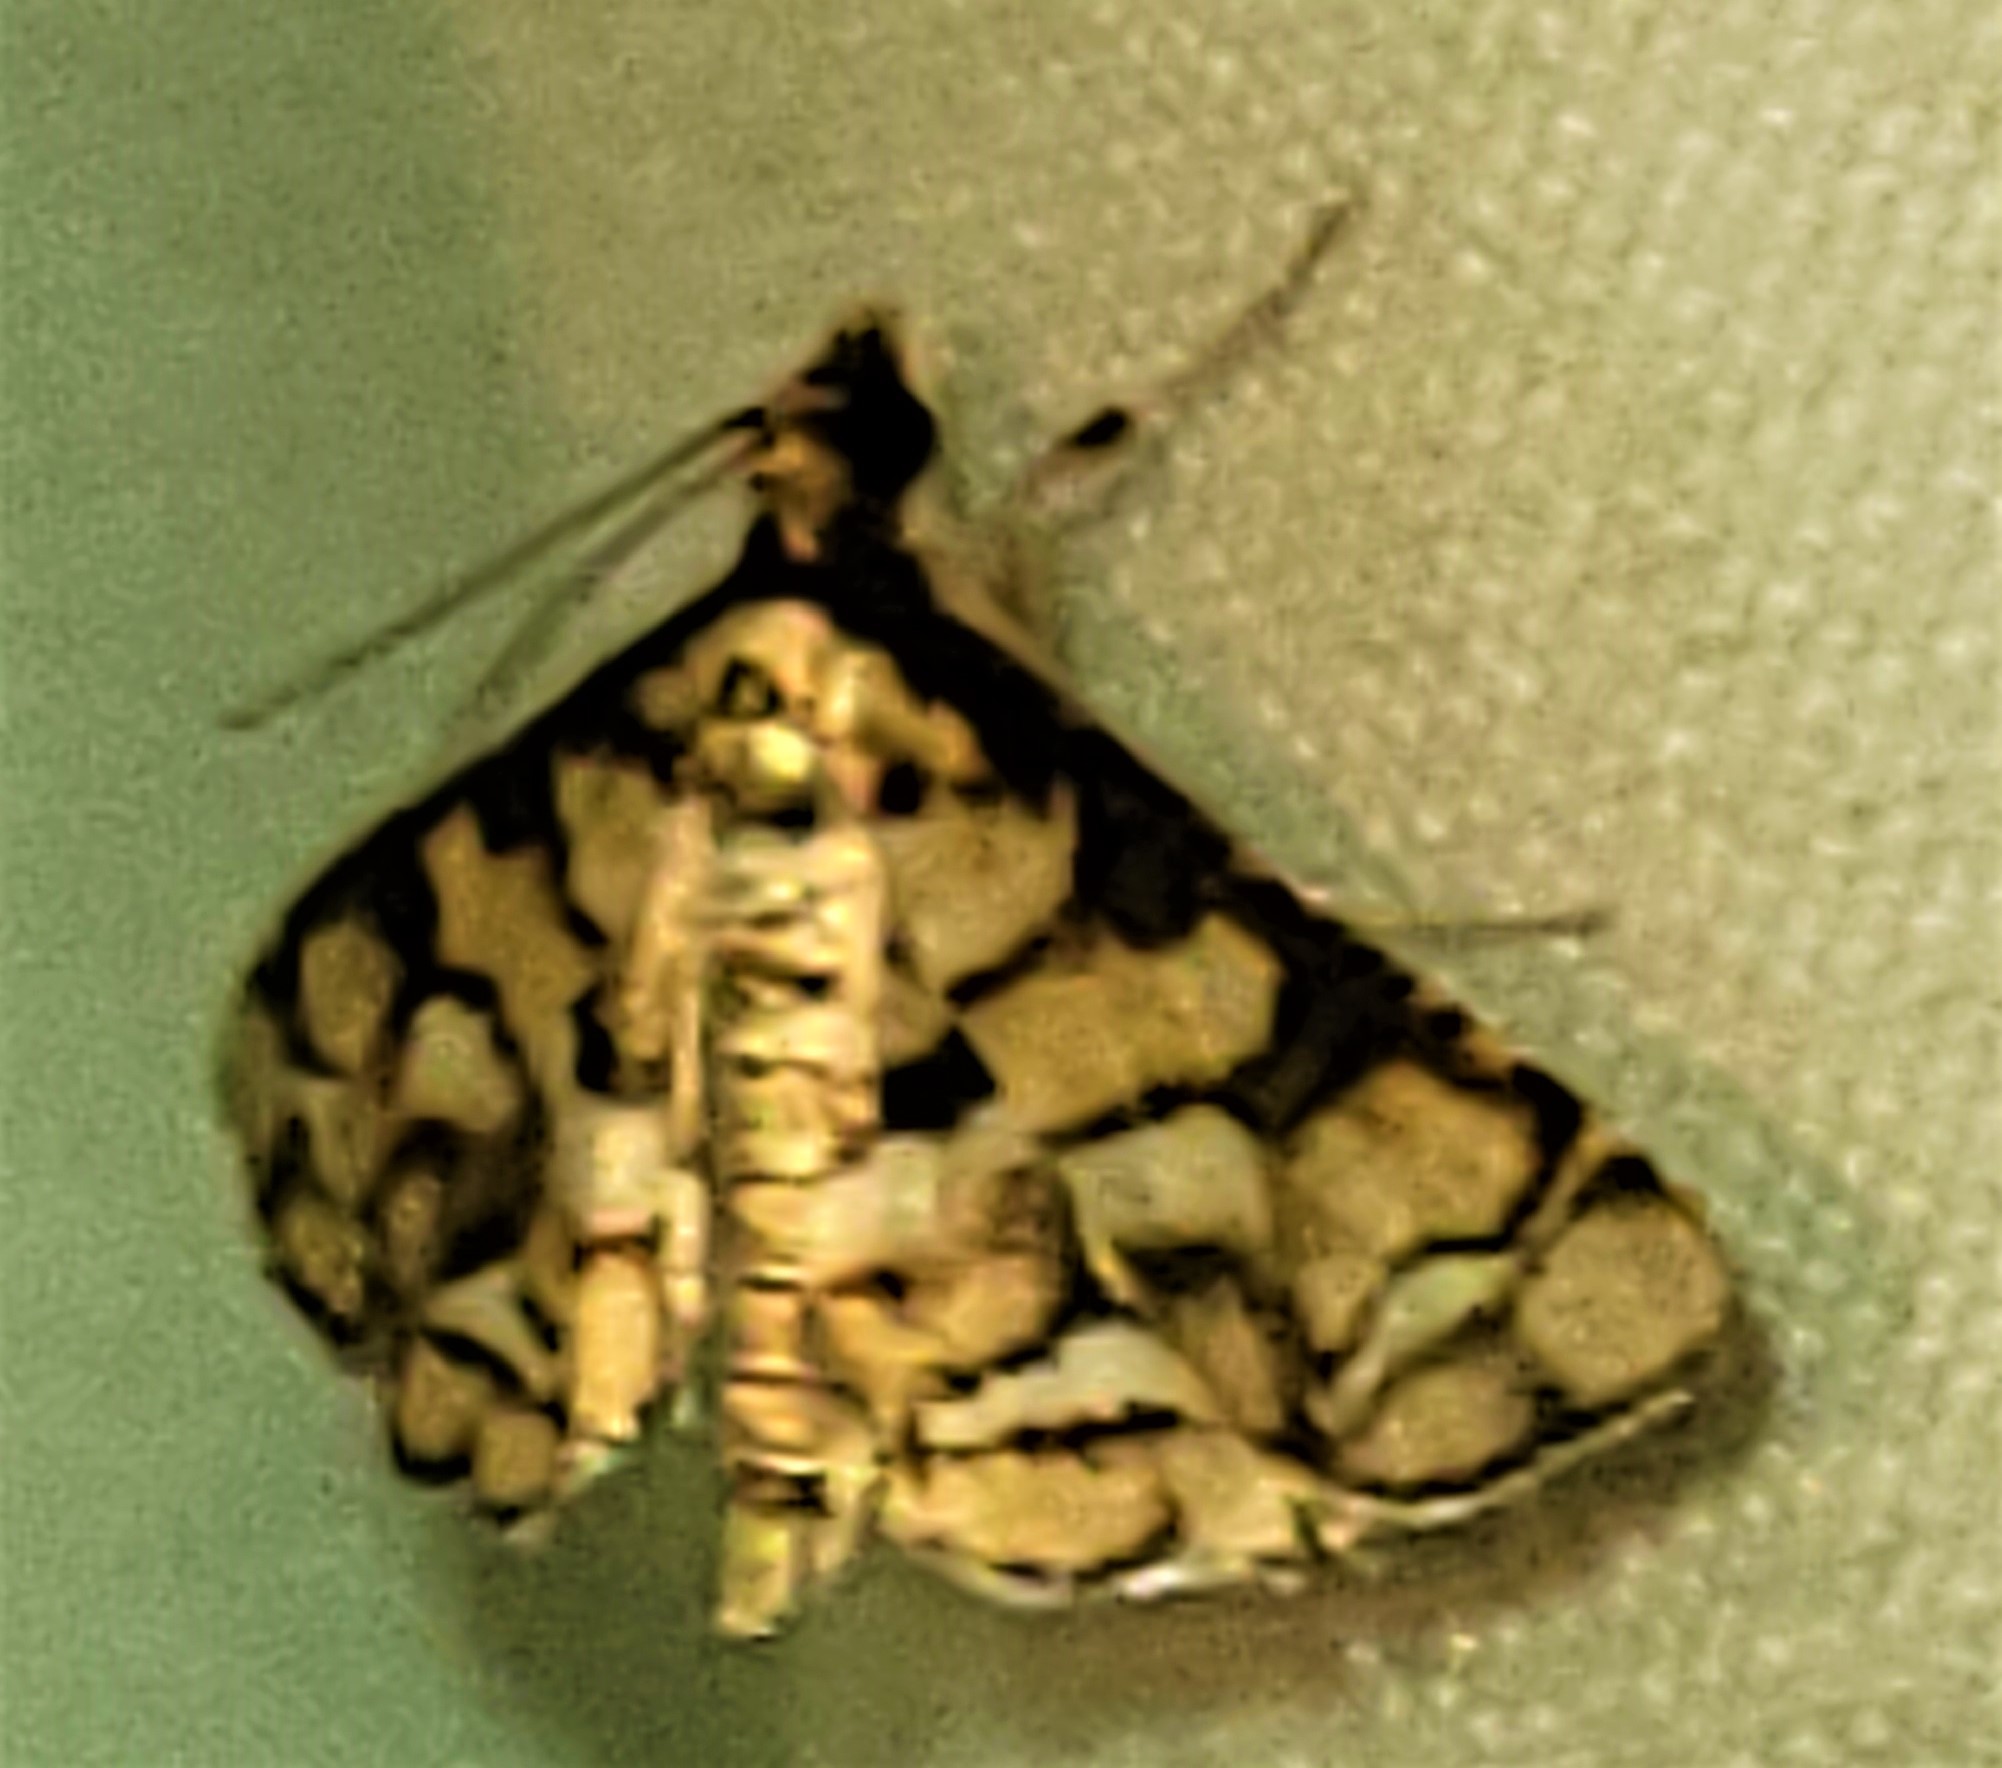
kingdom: Animalia
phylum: Arthropoda
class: Insecta
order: Lepidoptera
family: Crambidae
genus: Hileithia
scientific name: Hileithia magualis
